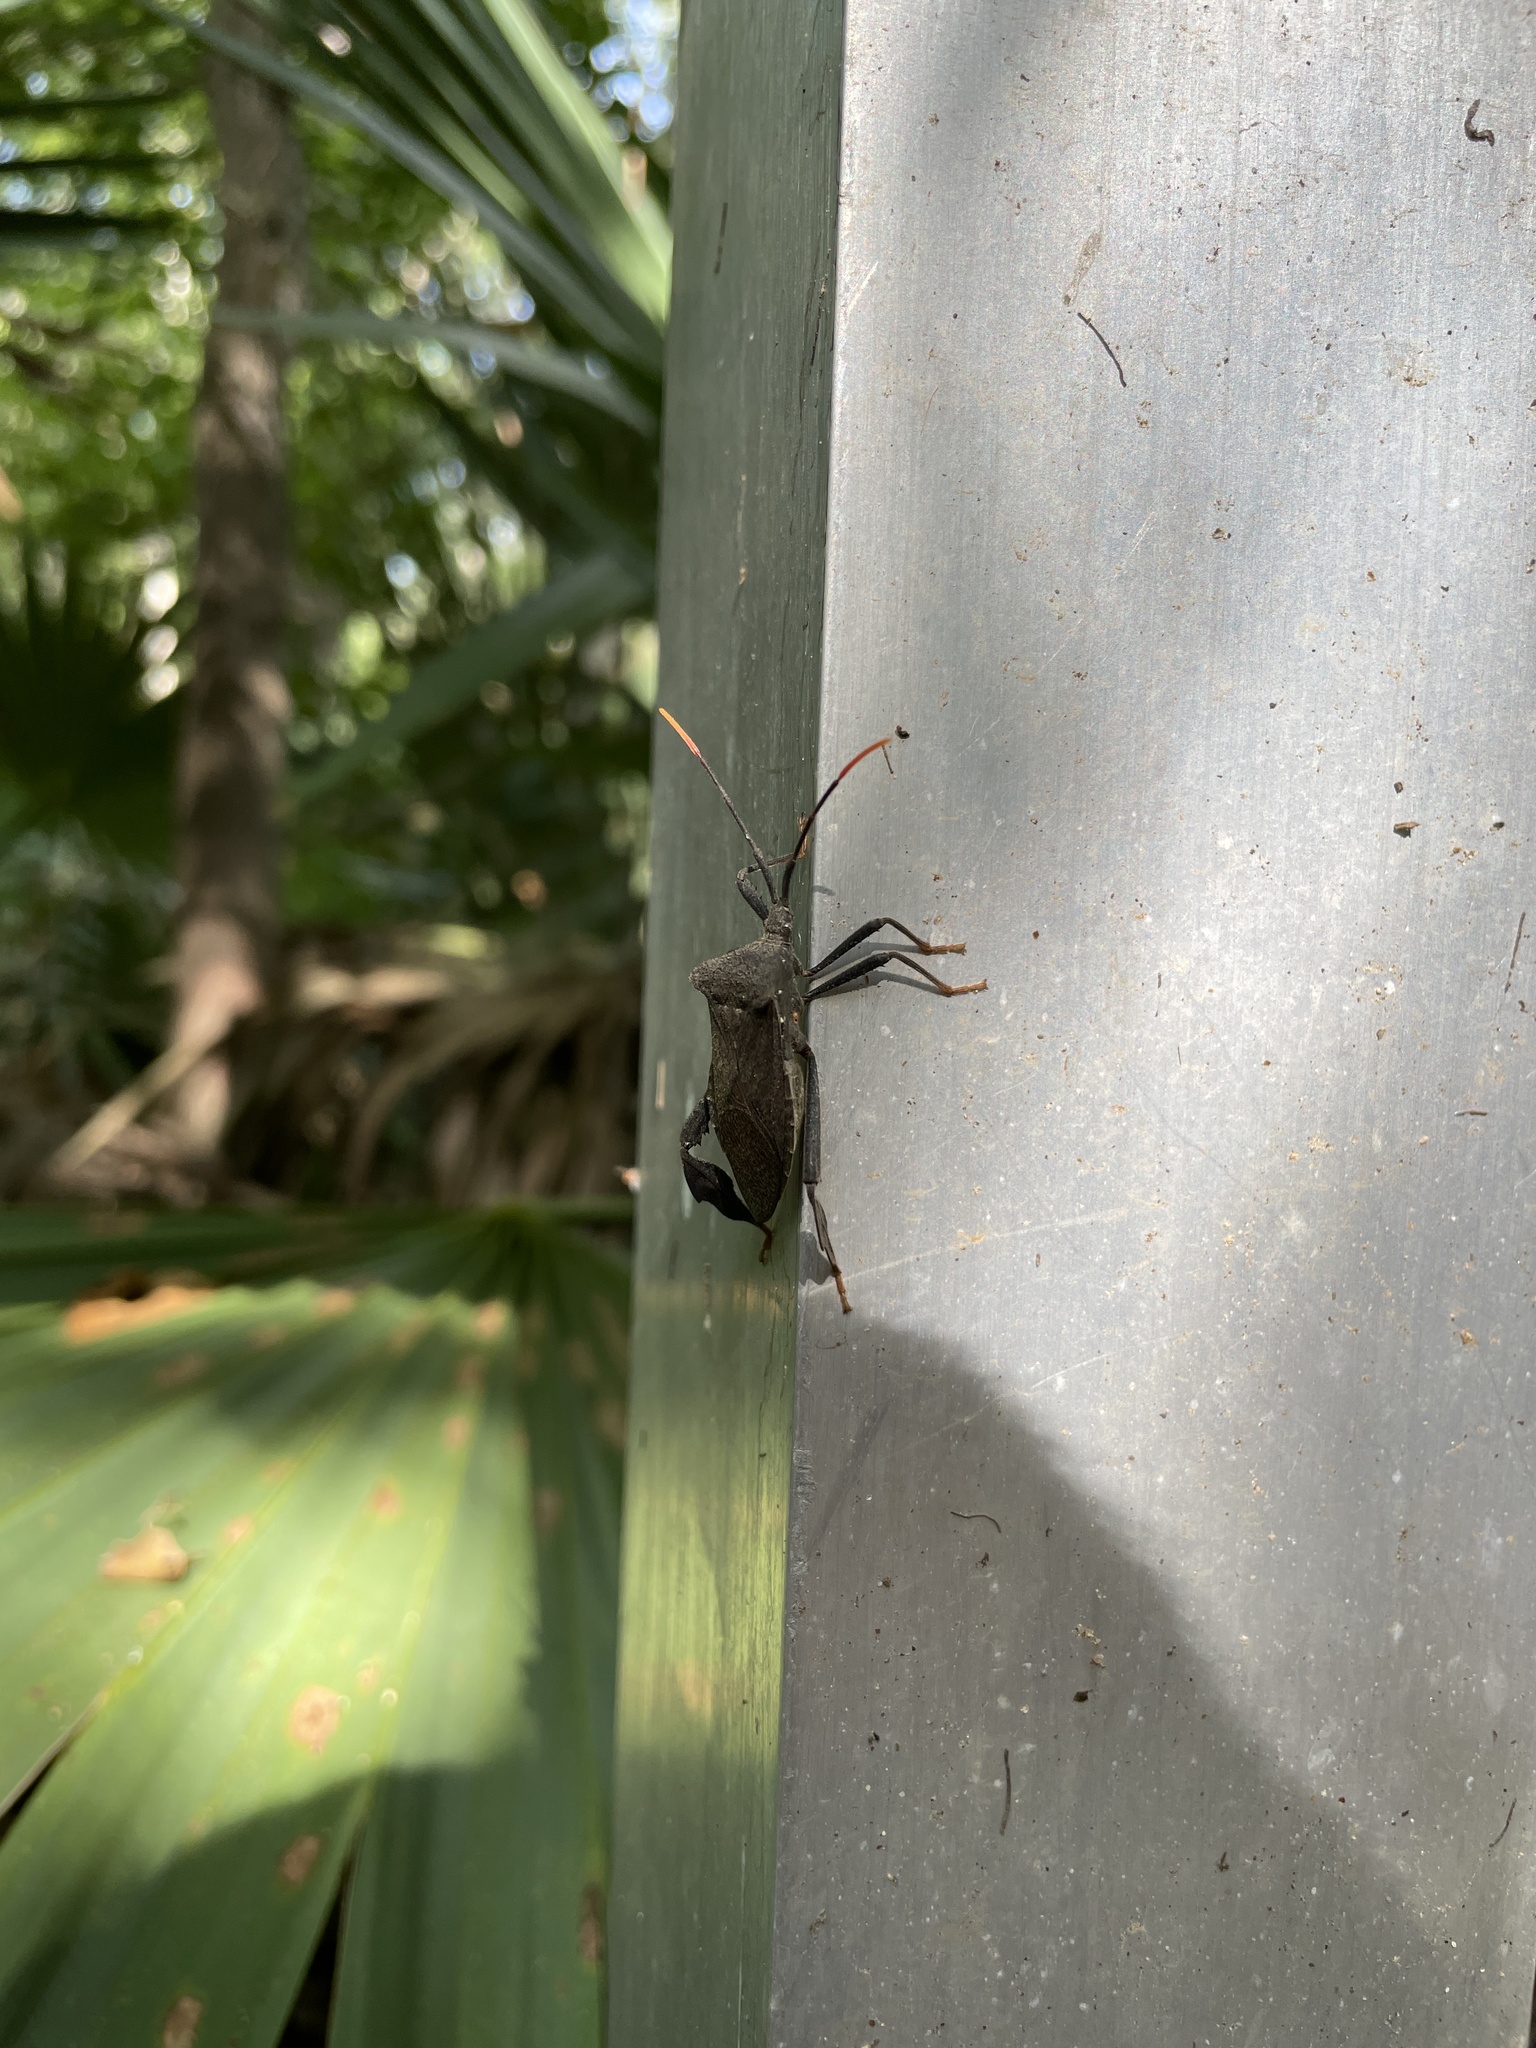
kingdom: Animalia
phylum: Arthropoda
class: Insecta
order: Hemiptera
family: Coreidae
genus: Acanthocephala
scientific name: Acanthocephala terminalis
